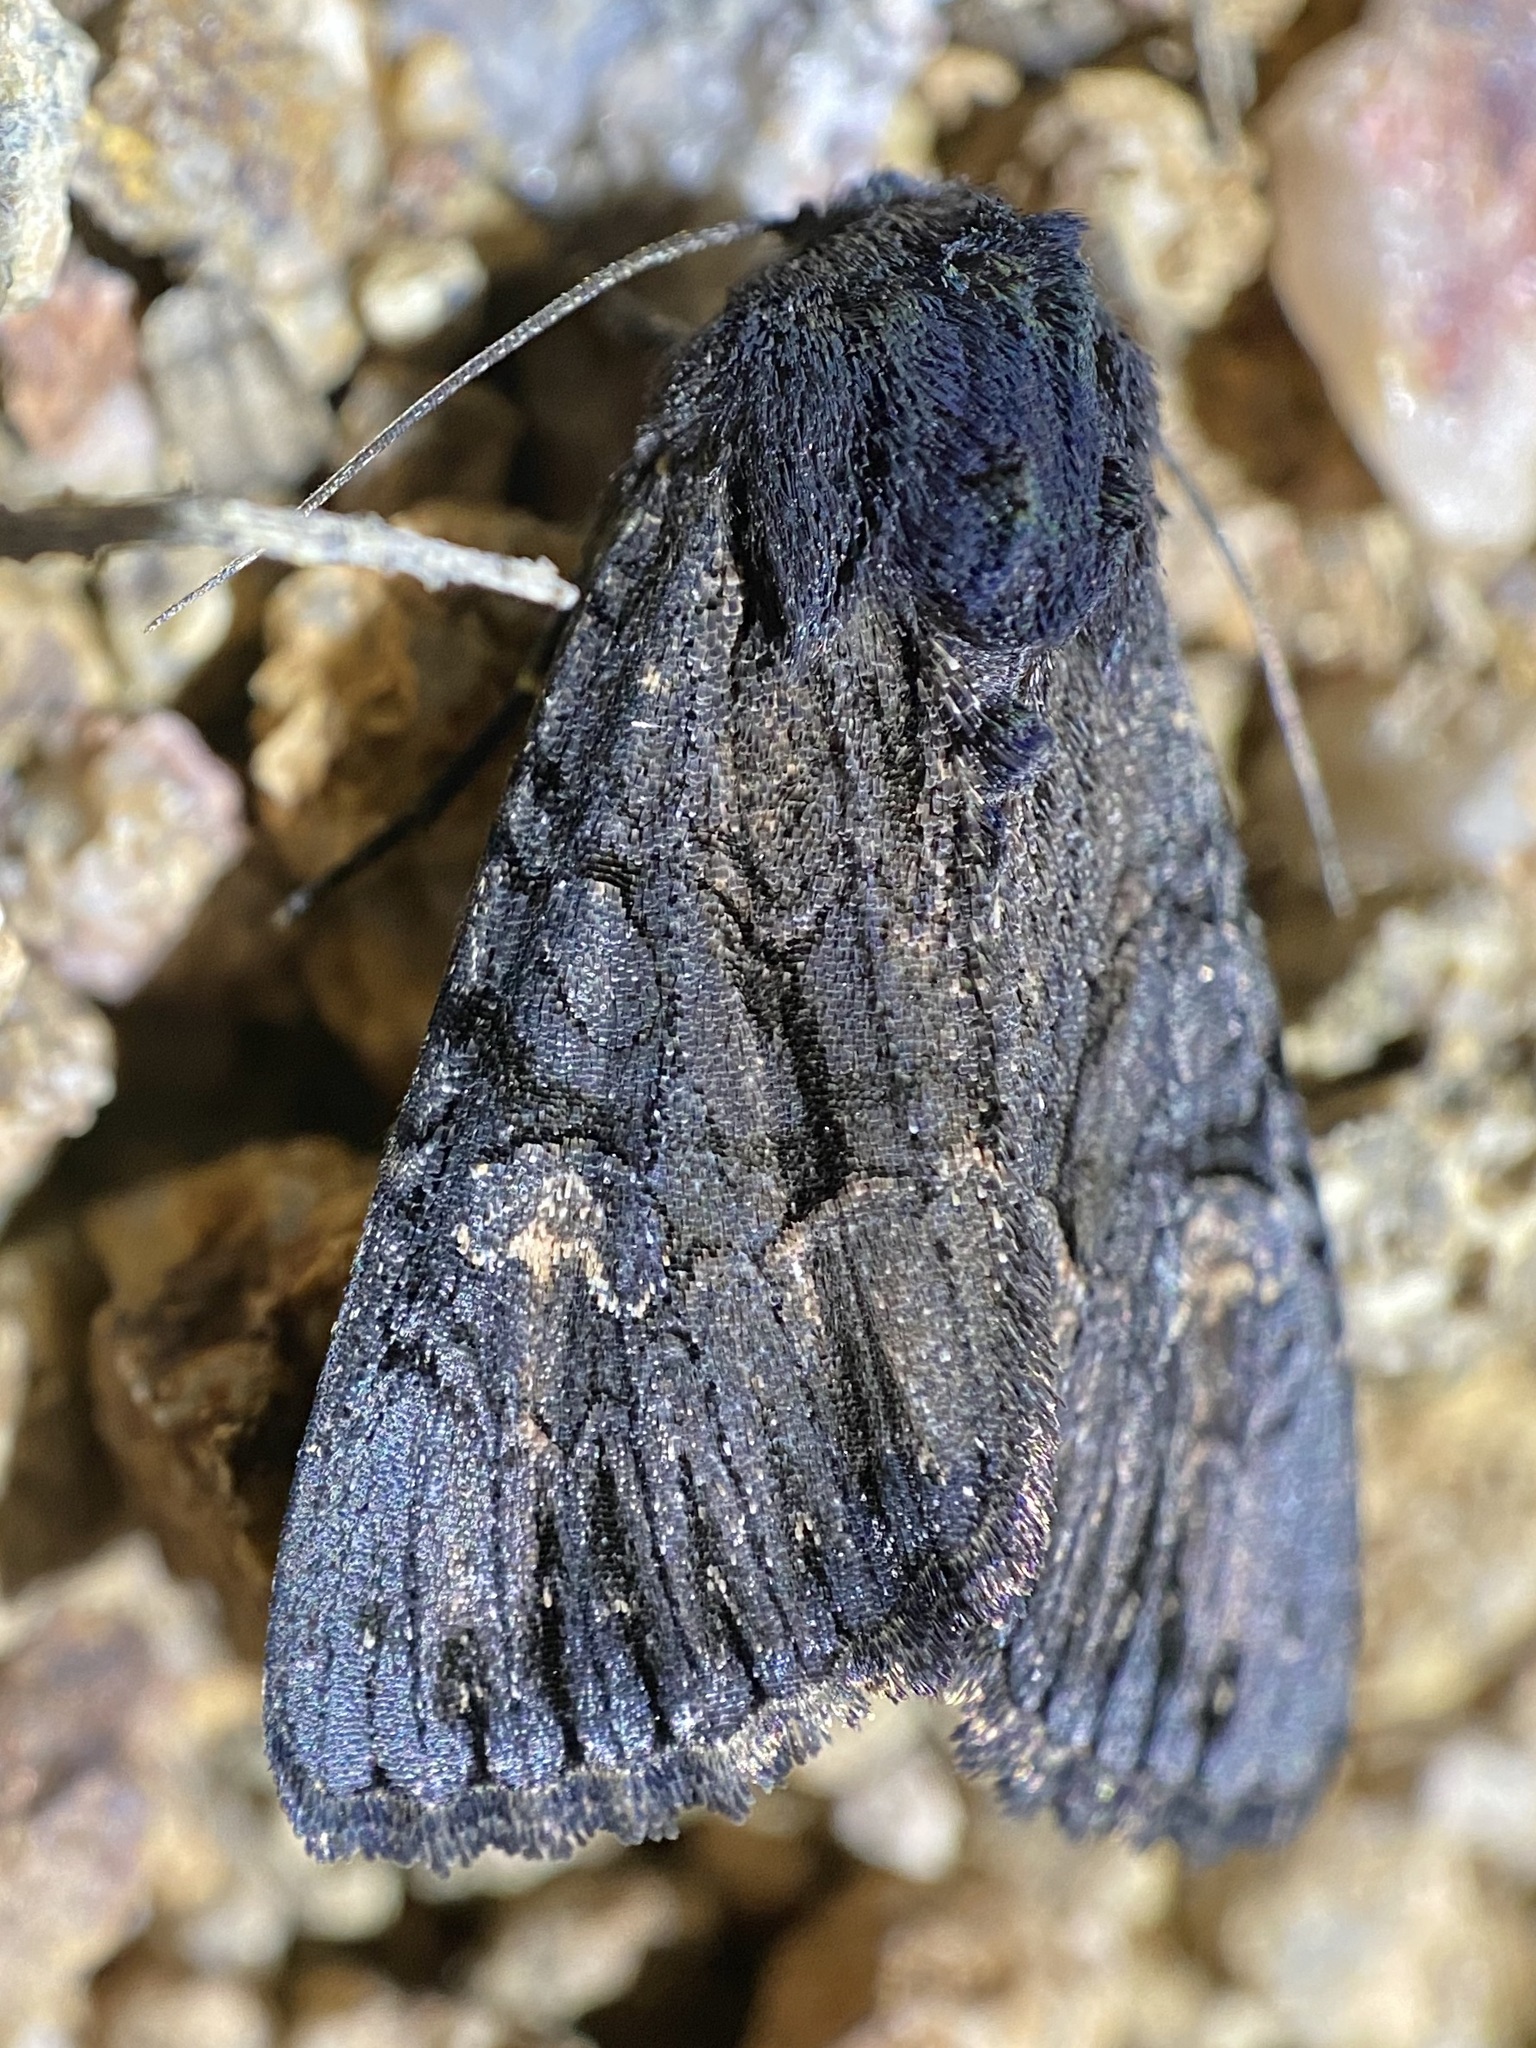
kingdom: Animalia
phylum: Arthropoda
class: Insecta
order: Lepidoptera
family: Noctuidae
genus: Apamea
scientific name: Apamea burgessi
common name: Burgess' apamea moth
